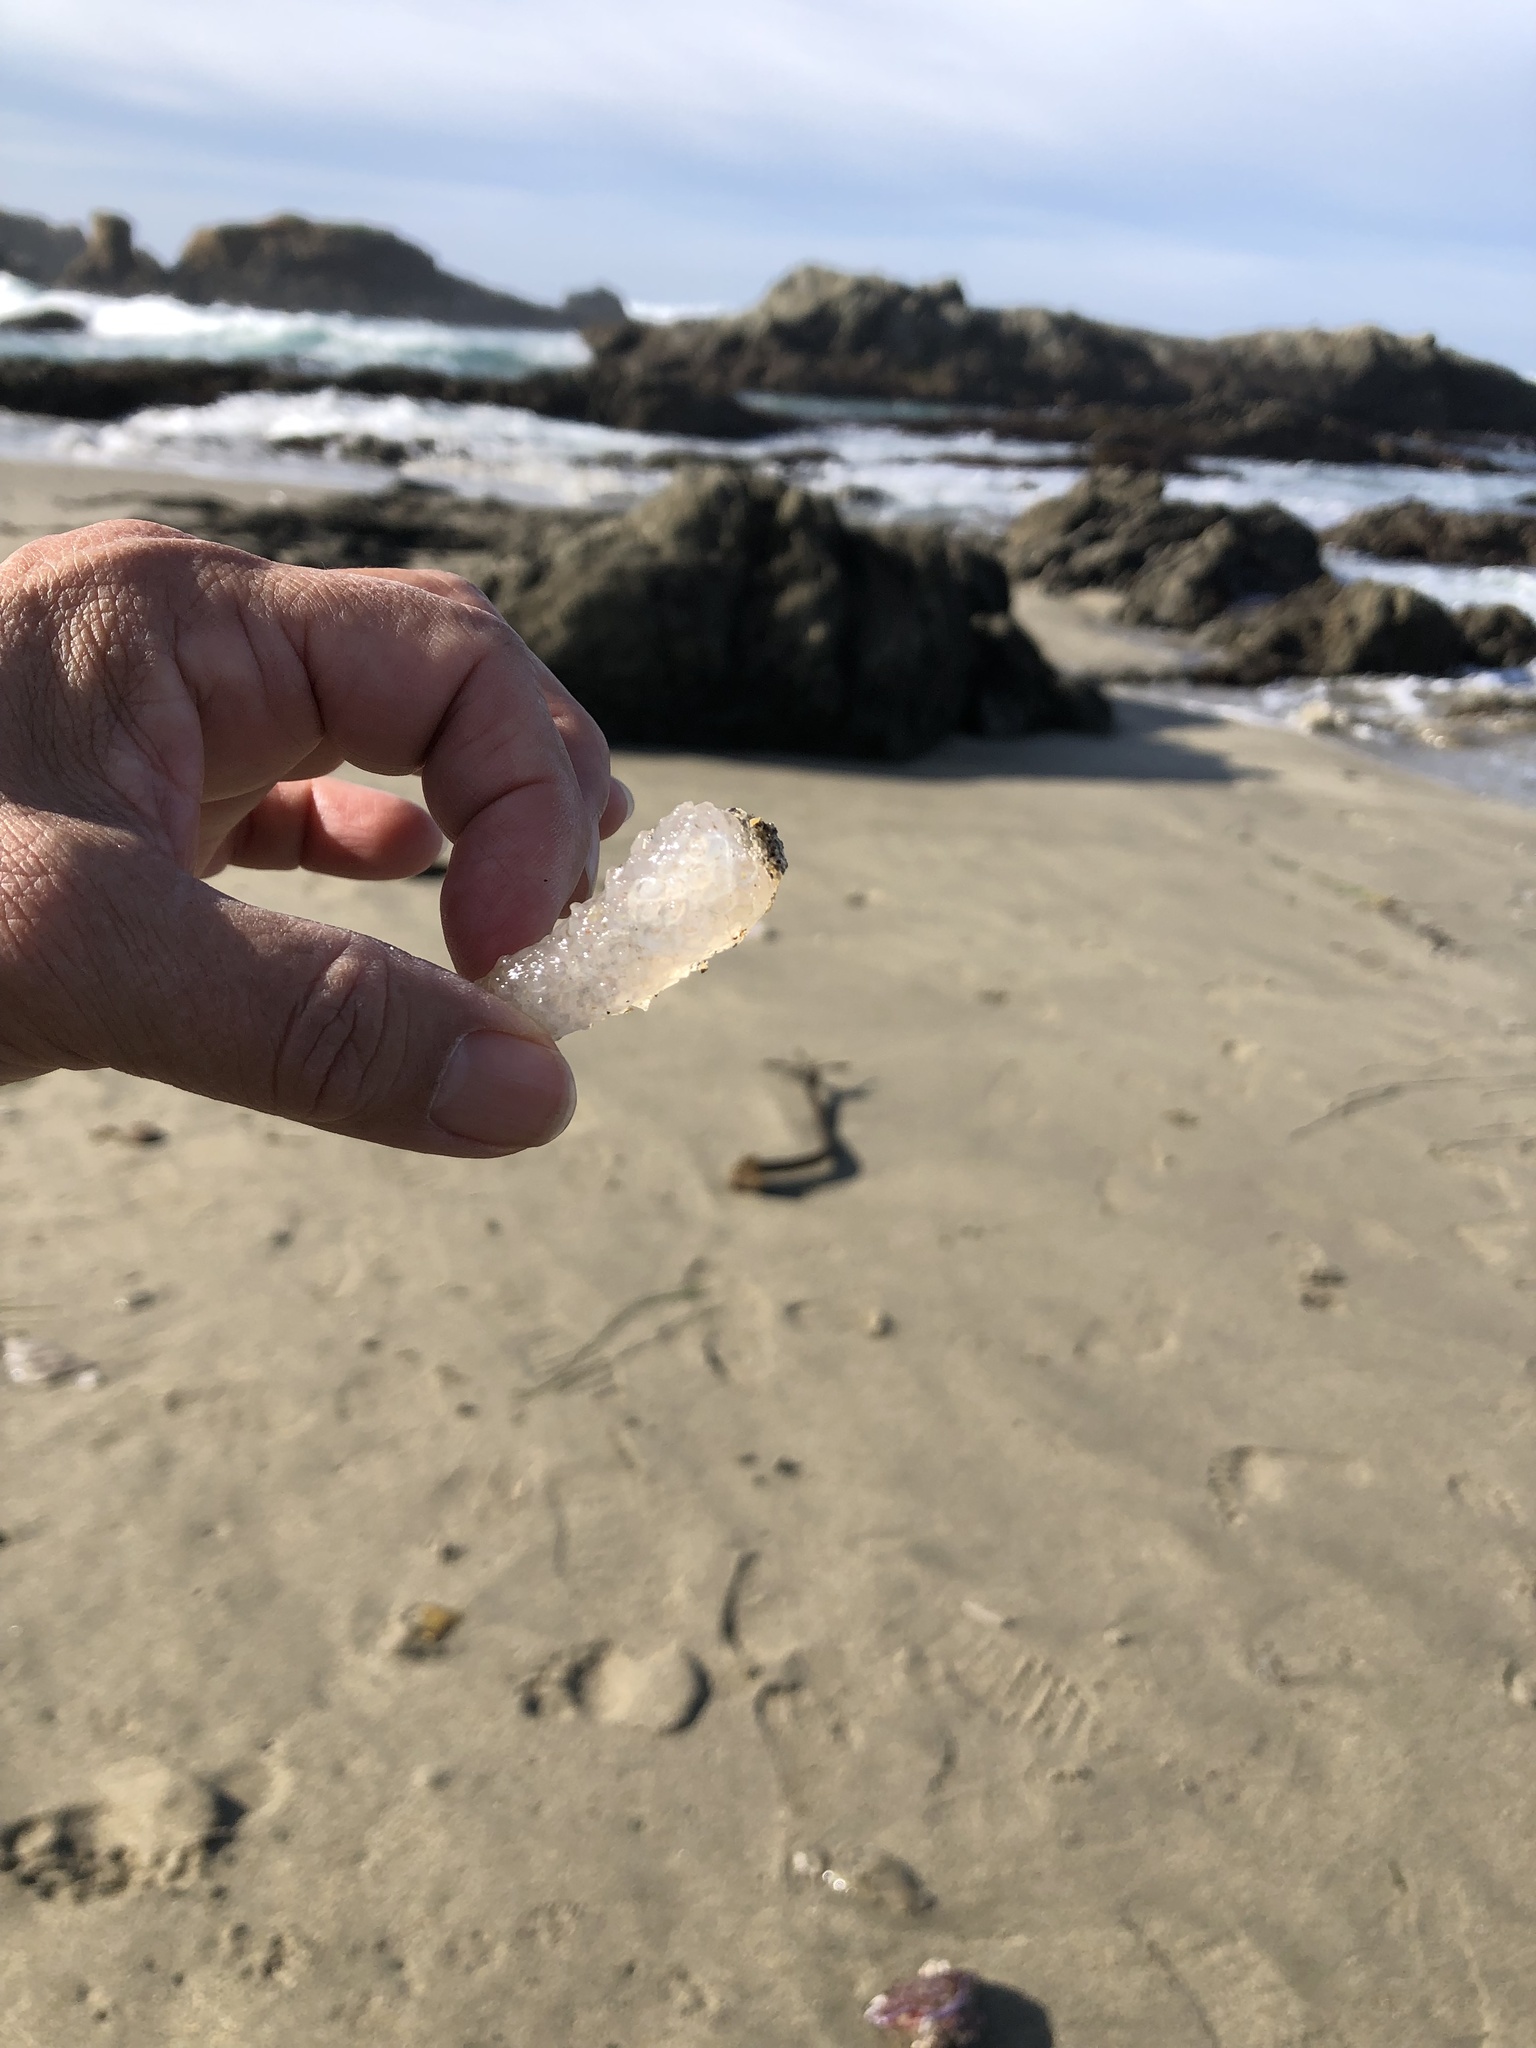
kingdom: Animalia
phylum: Chordata
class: Thaliacea
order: Pyrosomatida
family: Pyrosomatidae
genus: Pyrosoma
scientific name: Pyrosoma atlanticum
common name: Atlantic pyrosomes
